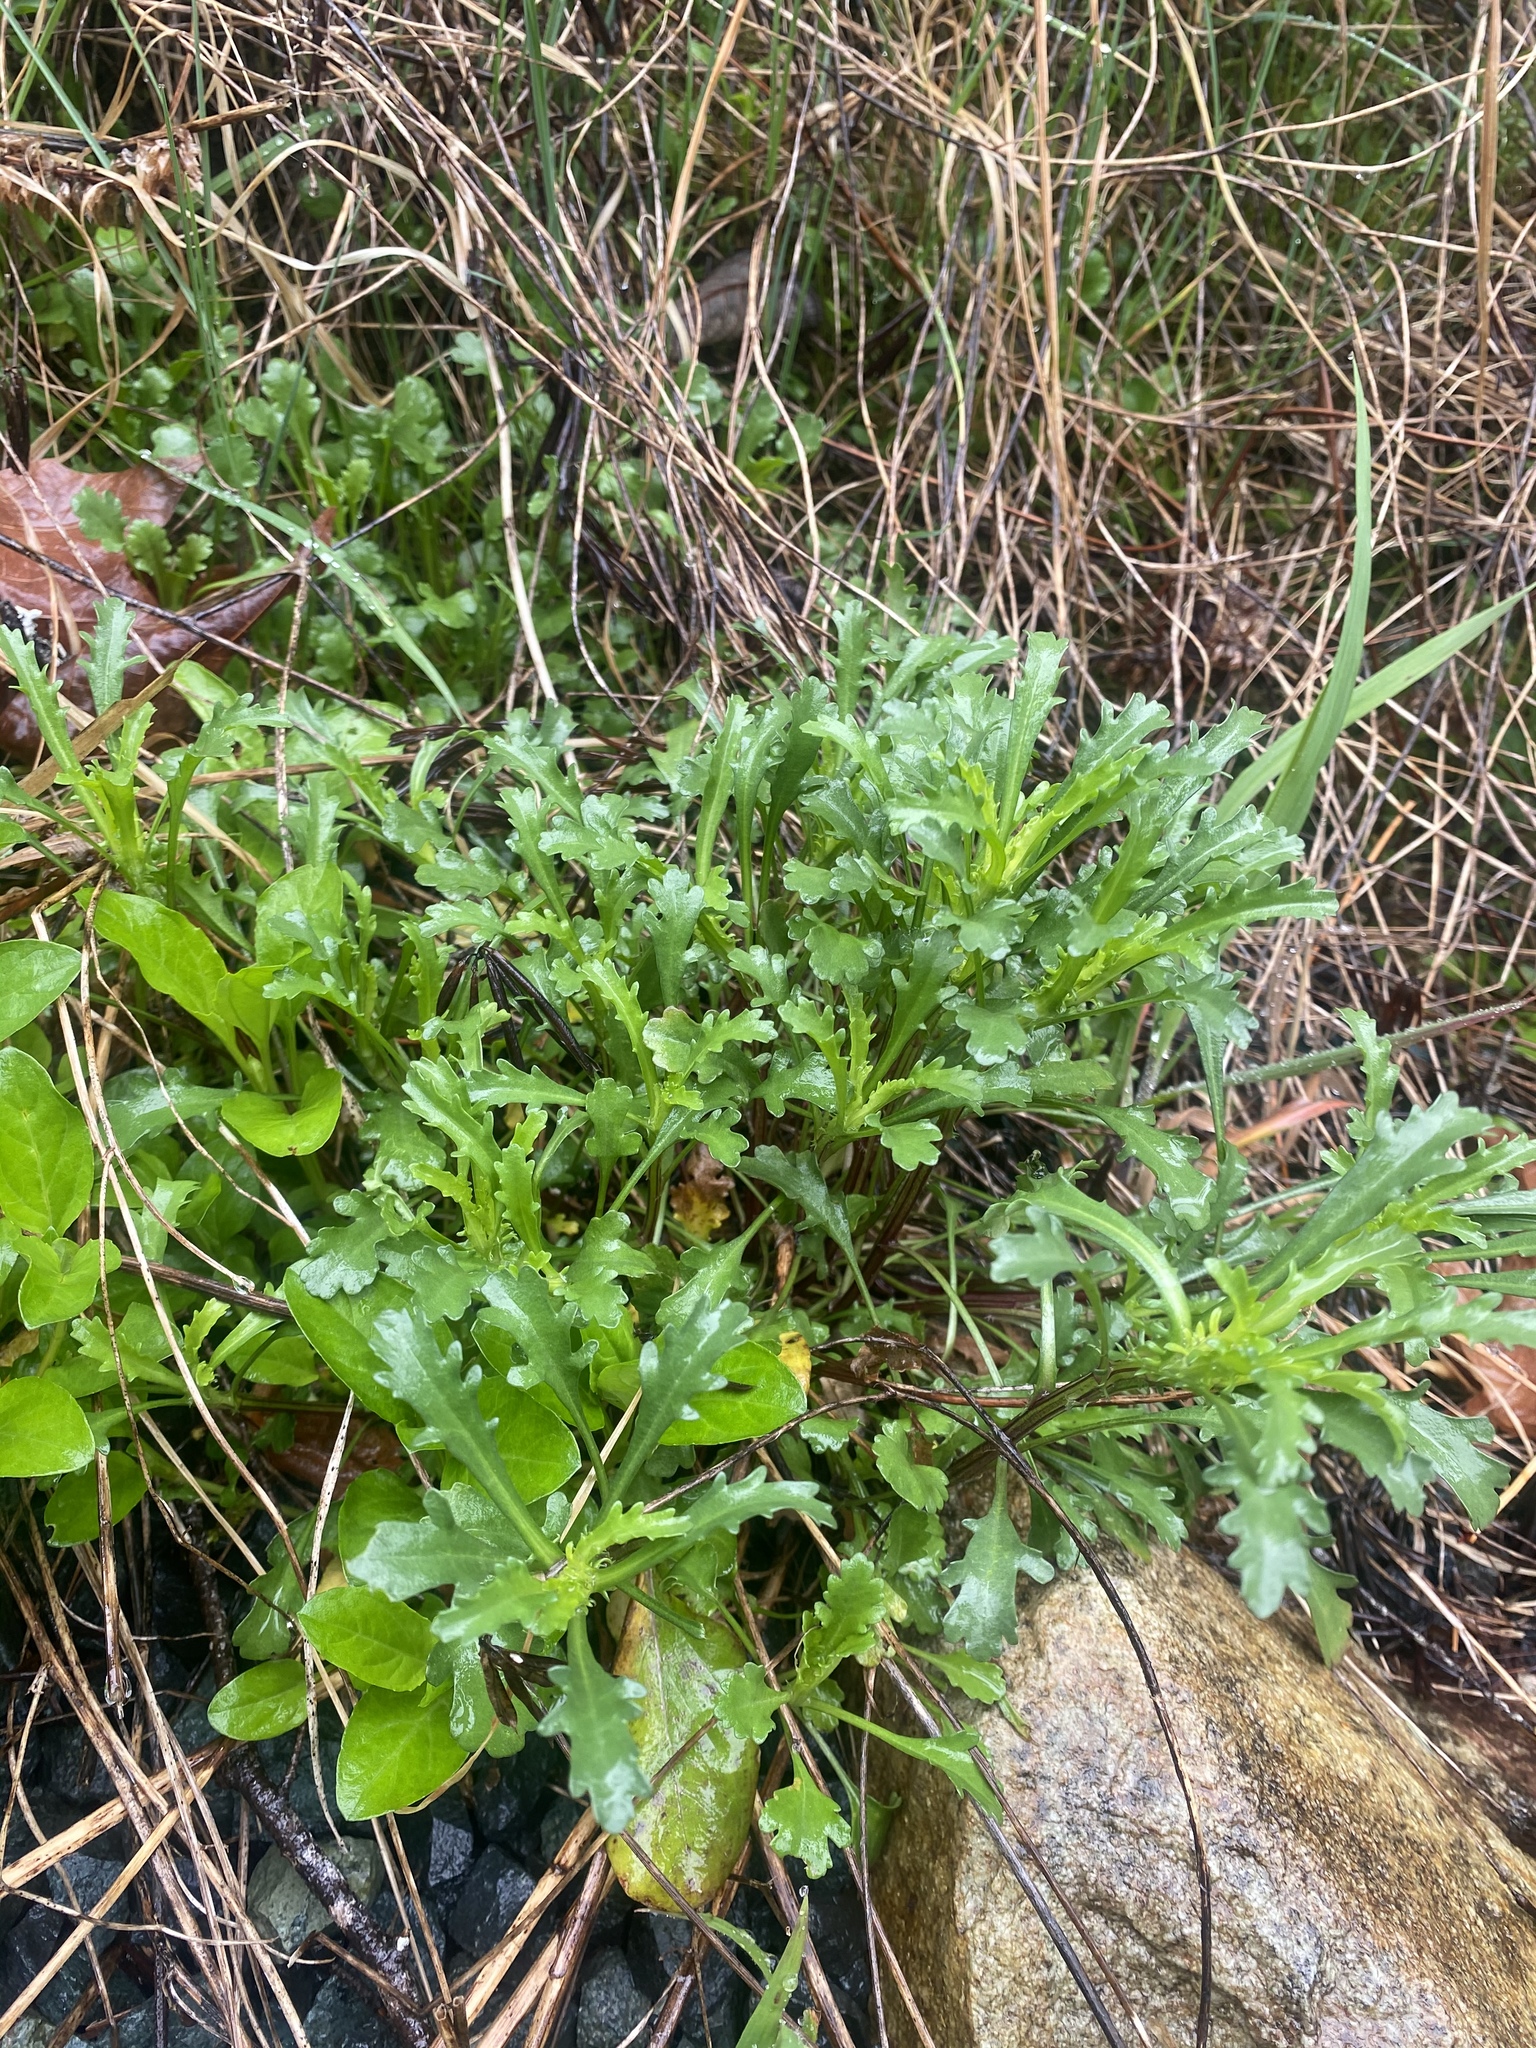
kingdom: Plantae
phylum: Tracheophyta
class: Magnoliopsida
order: Asterales
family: Asteraceae
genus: Leucanthemum
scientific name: Leucanthemum vulgare
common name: Oxeye daisy
